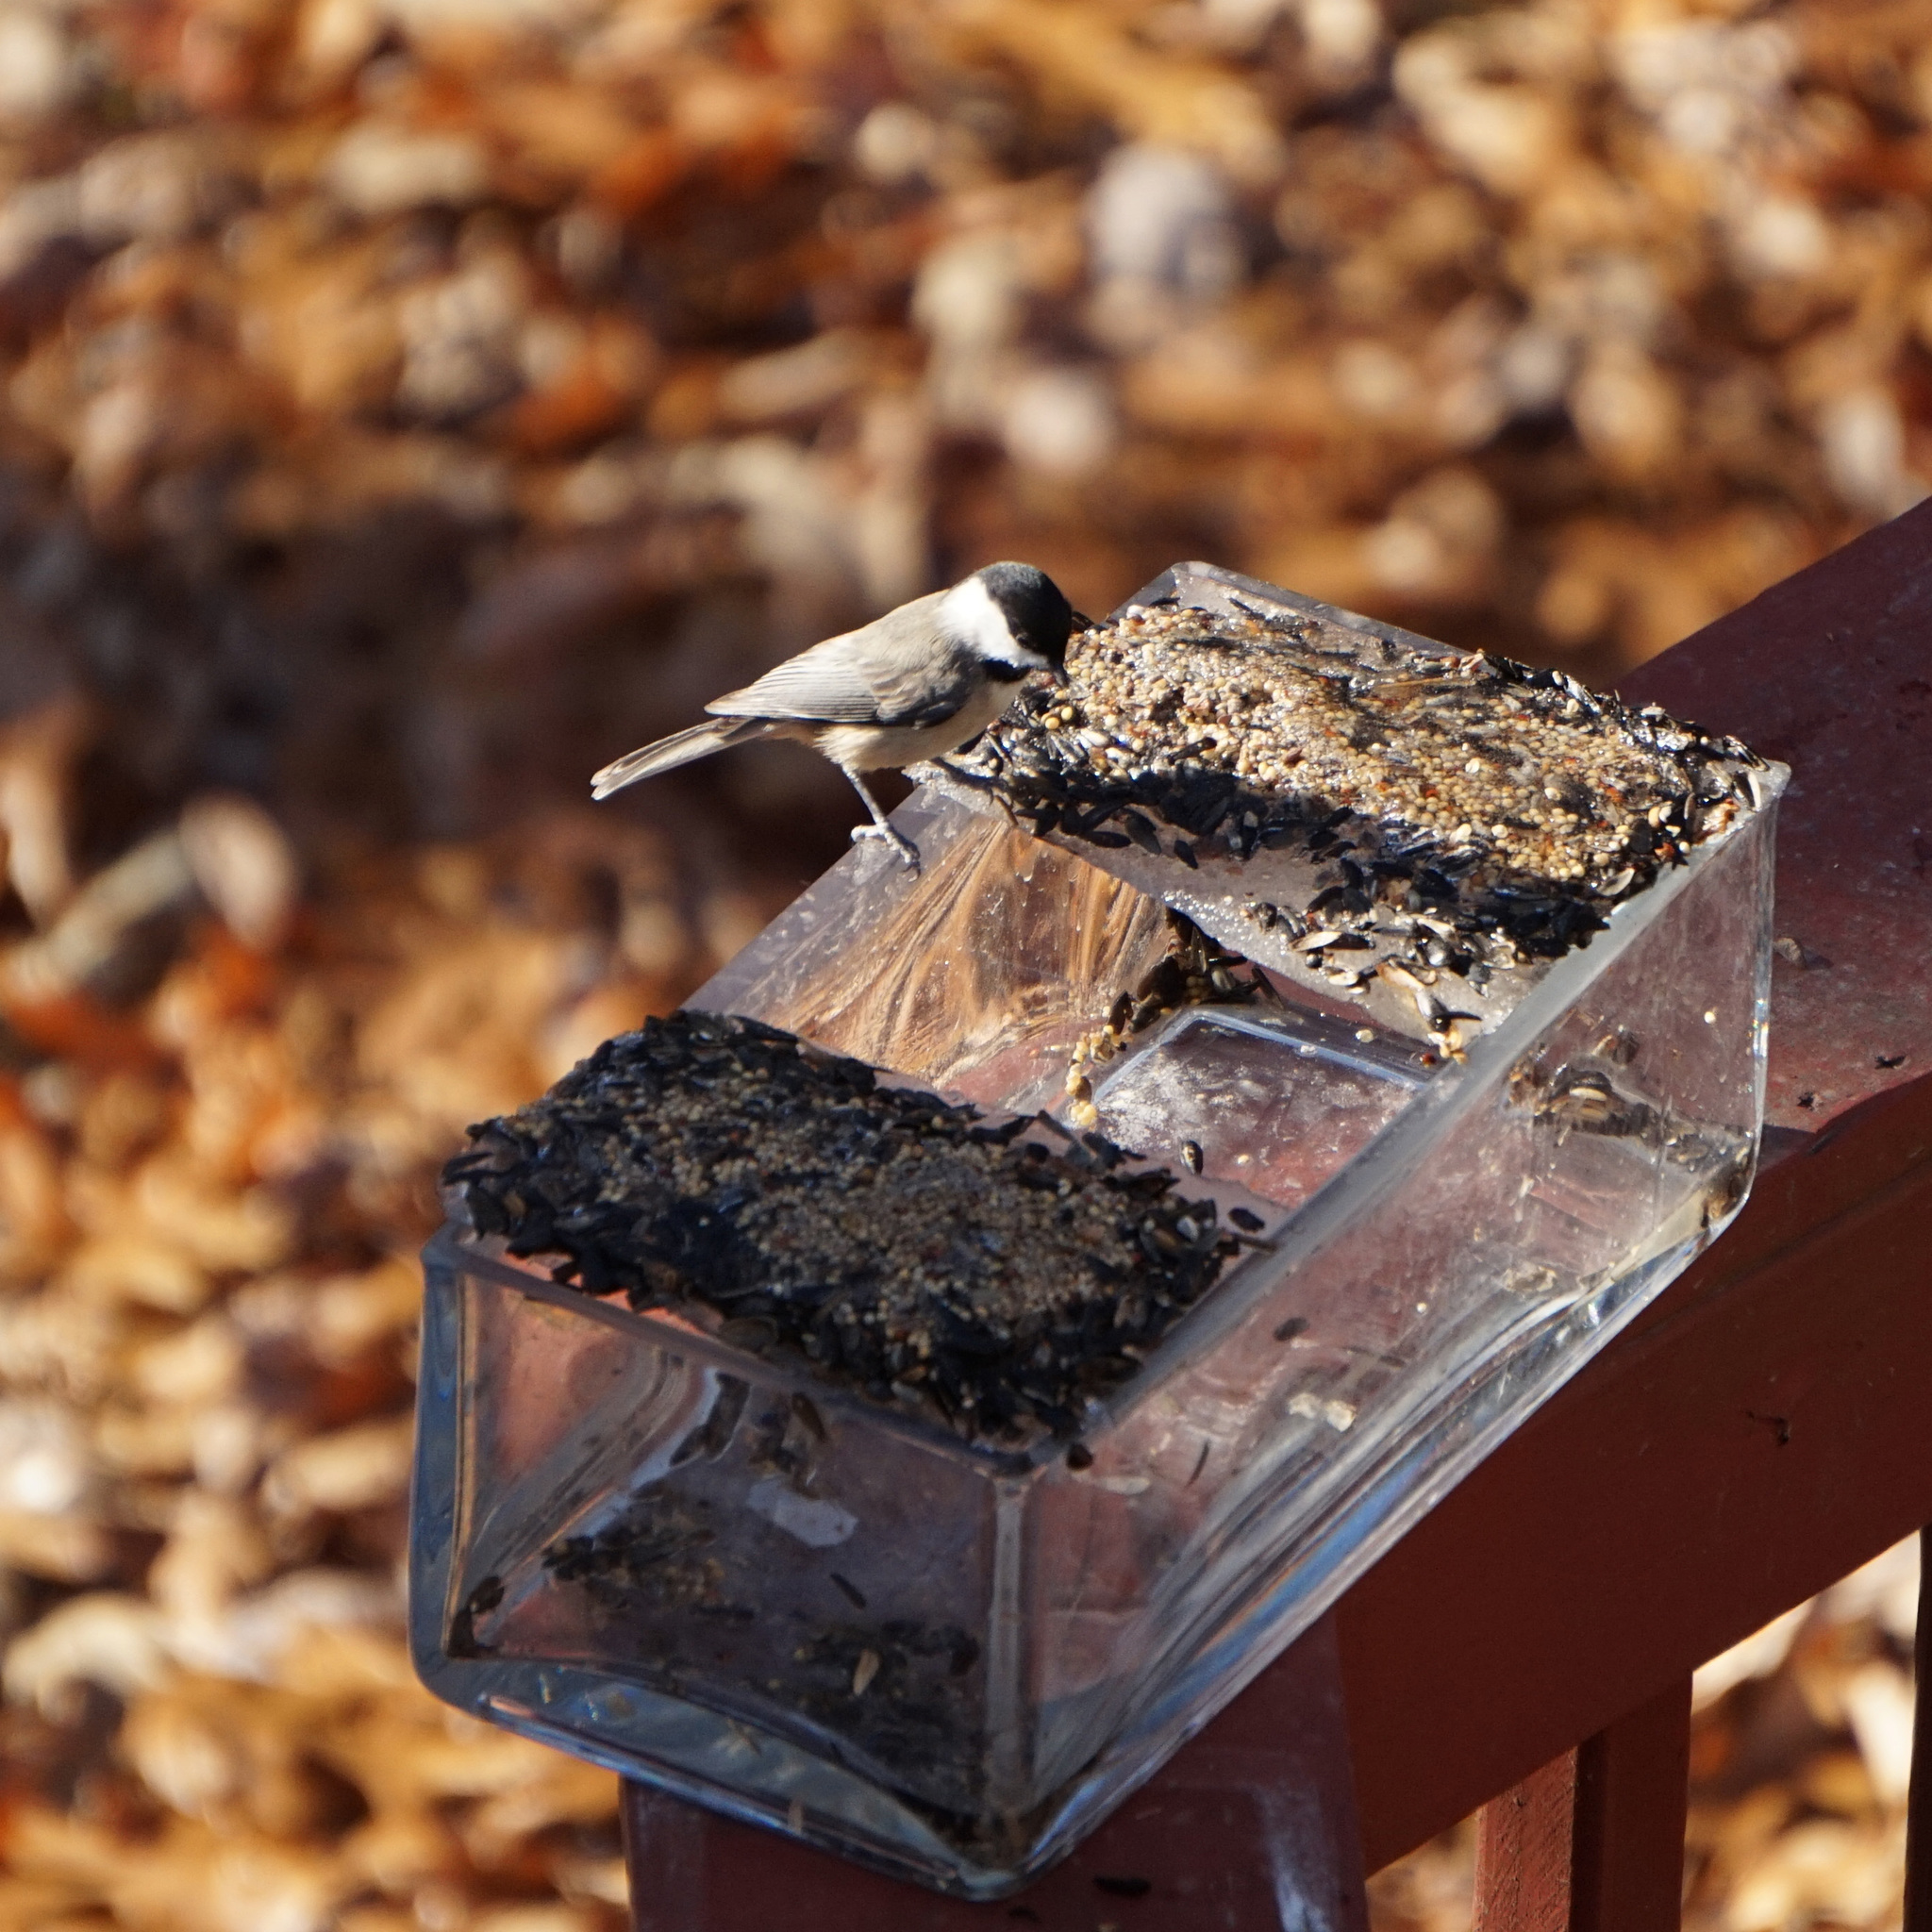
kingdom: Animalia
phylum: Chordata
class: Aves
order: Passeriformes
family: Paridae
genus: Poecile
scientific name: Poecile carolinensis
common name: Carolina chickadee
